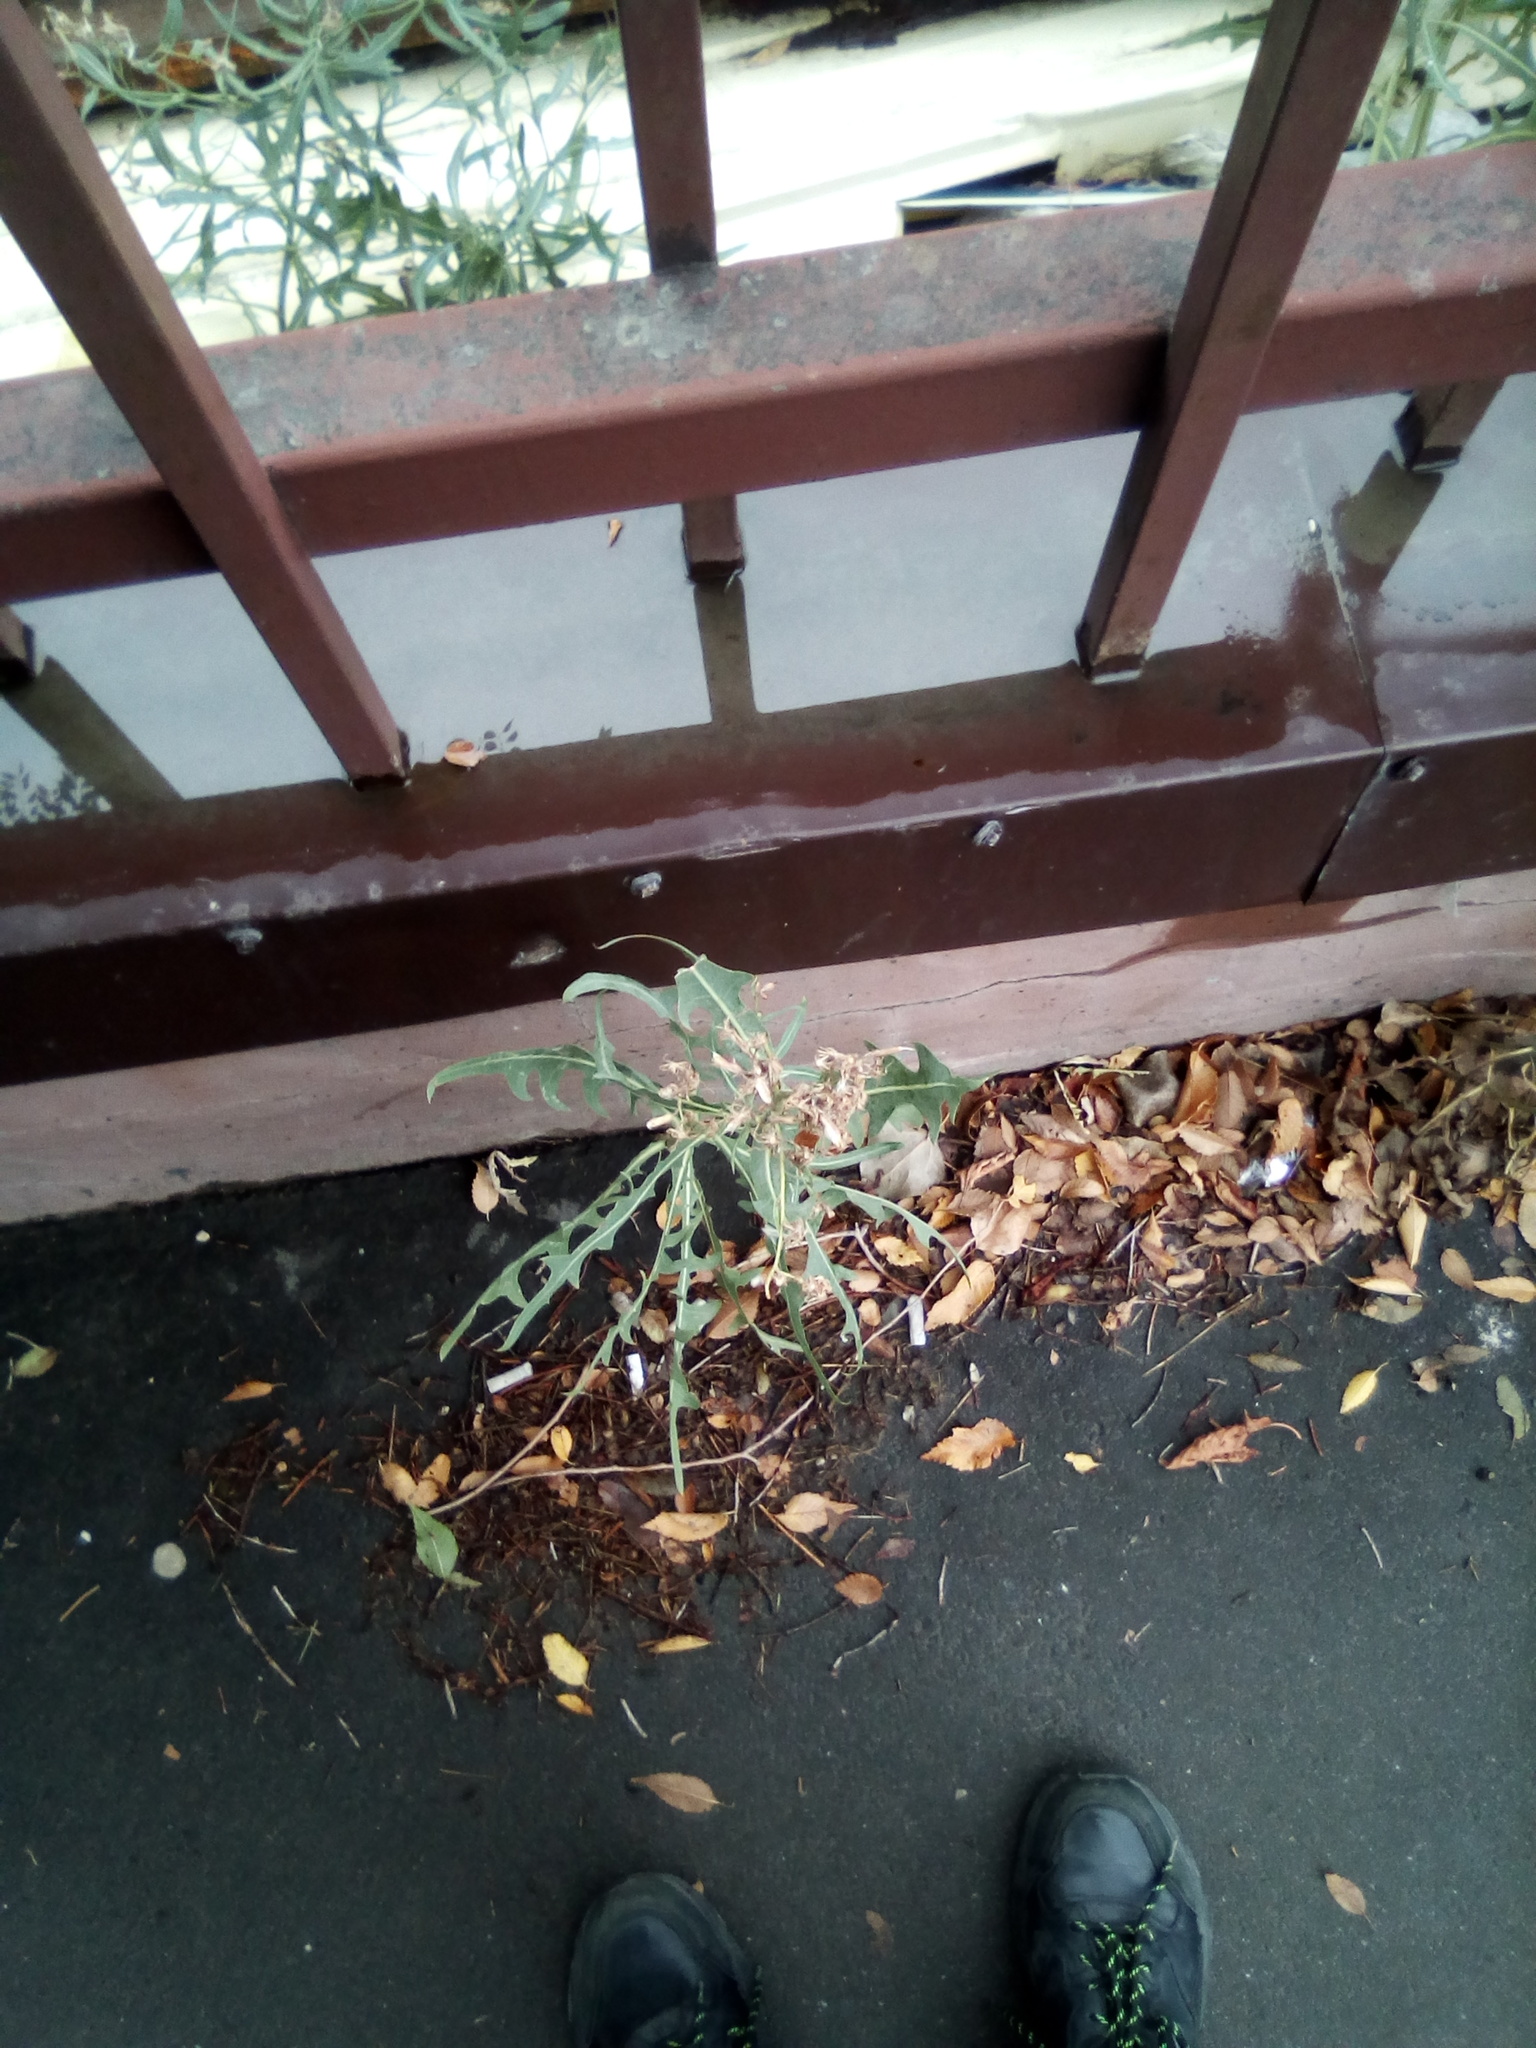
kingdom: Plantae
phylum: Tracheophyta
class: Magnoliopsida
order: Asterales
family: Asteraceae
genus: Lactuca
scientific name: Lactuca serriola
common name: Prickly lettuce
